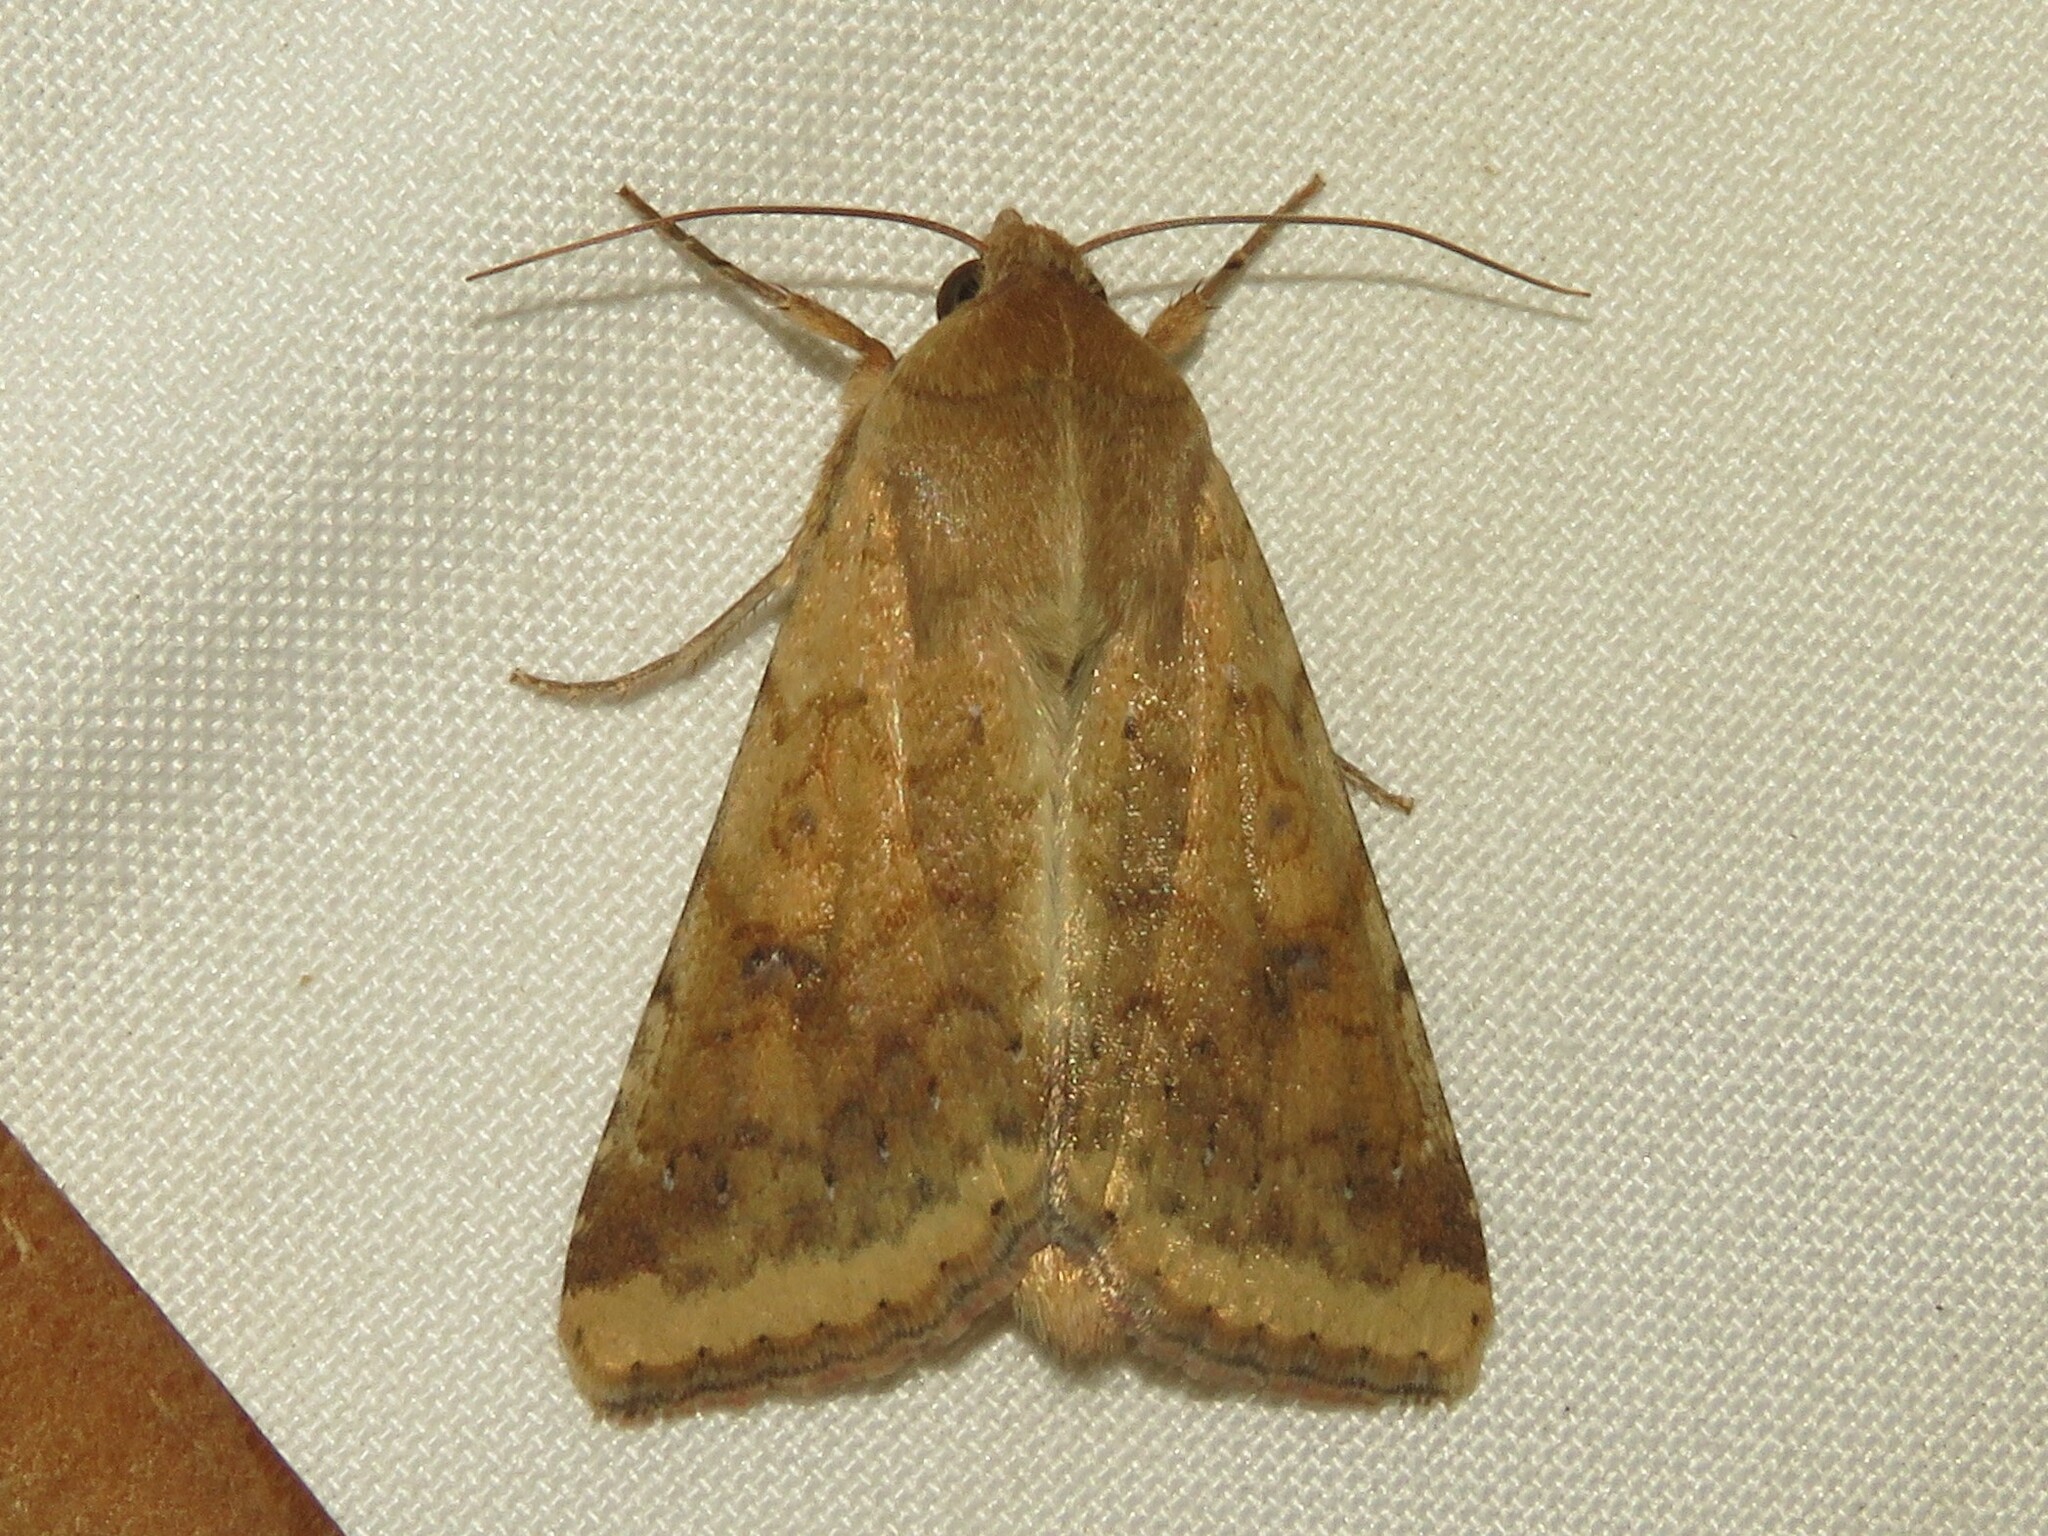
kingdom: Animalia
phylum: Arthropoda
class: Insecta
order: Lepidoptera
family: Noctuidae
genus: Helicoverpa
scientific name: Helicoverpa zea
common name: Bollworm
